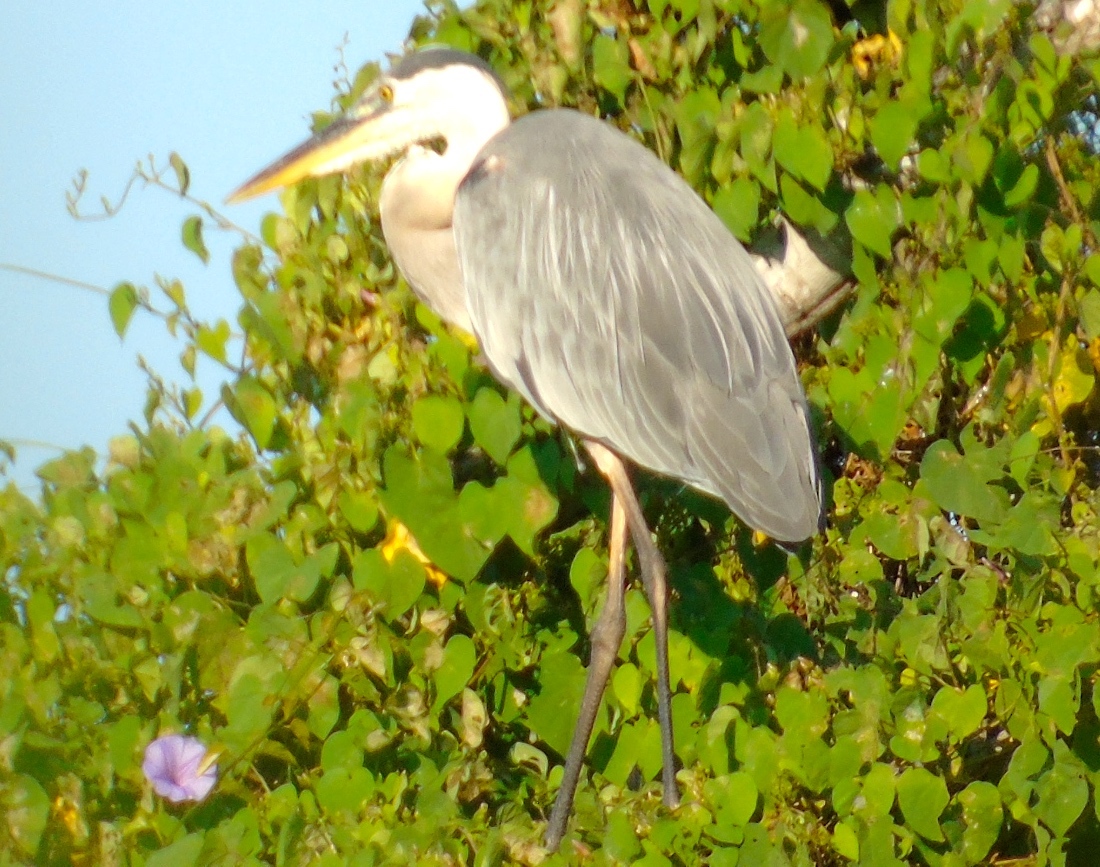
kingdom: Animalia
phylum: Chordata
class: Aves
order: Pelecaniformes
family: Ardeidae
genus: Ardea
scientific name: Ardea herodias
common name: Great blue heron
